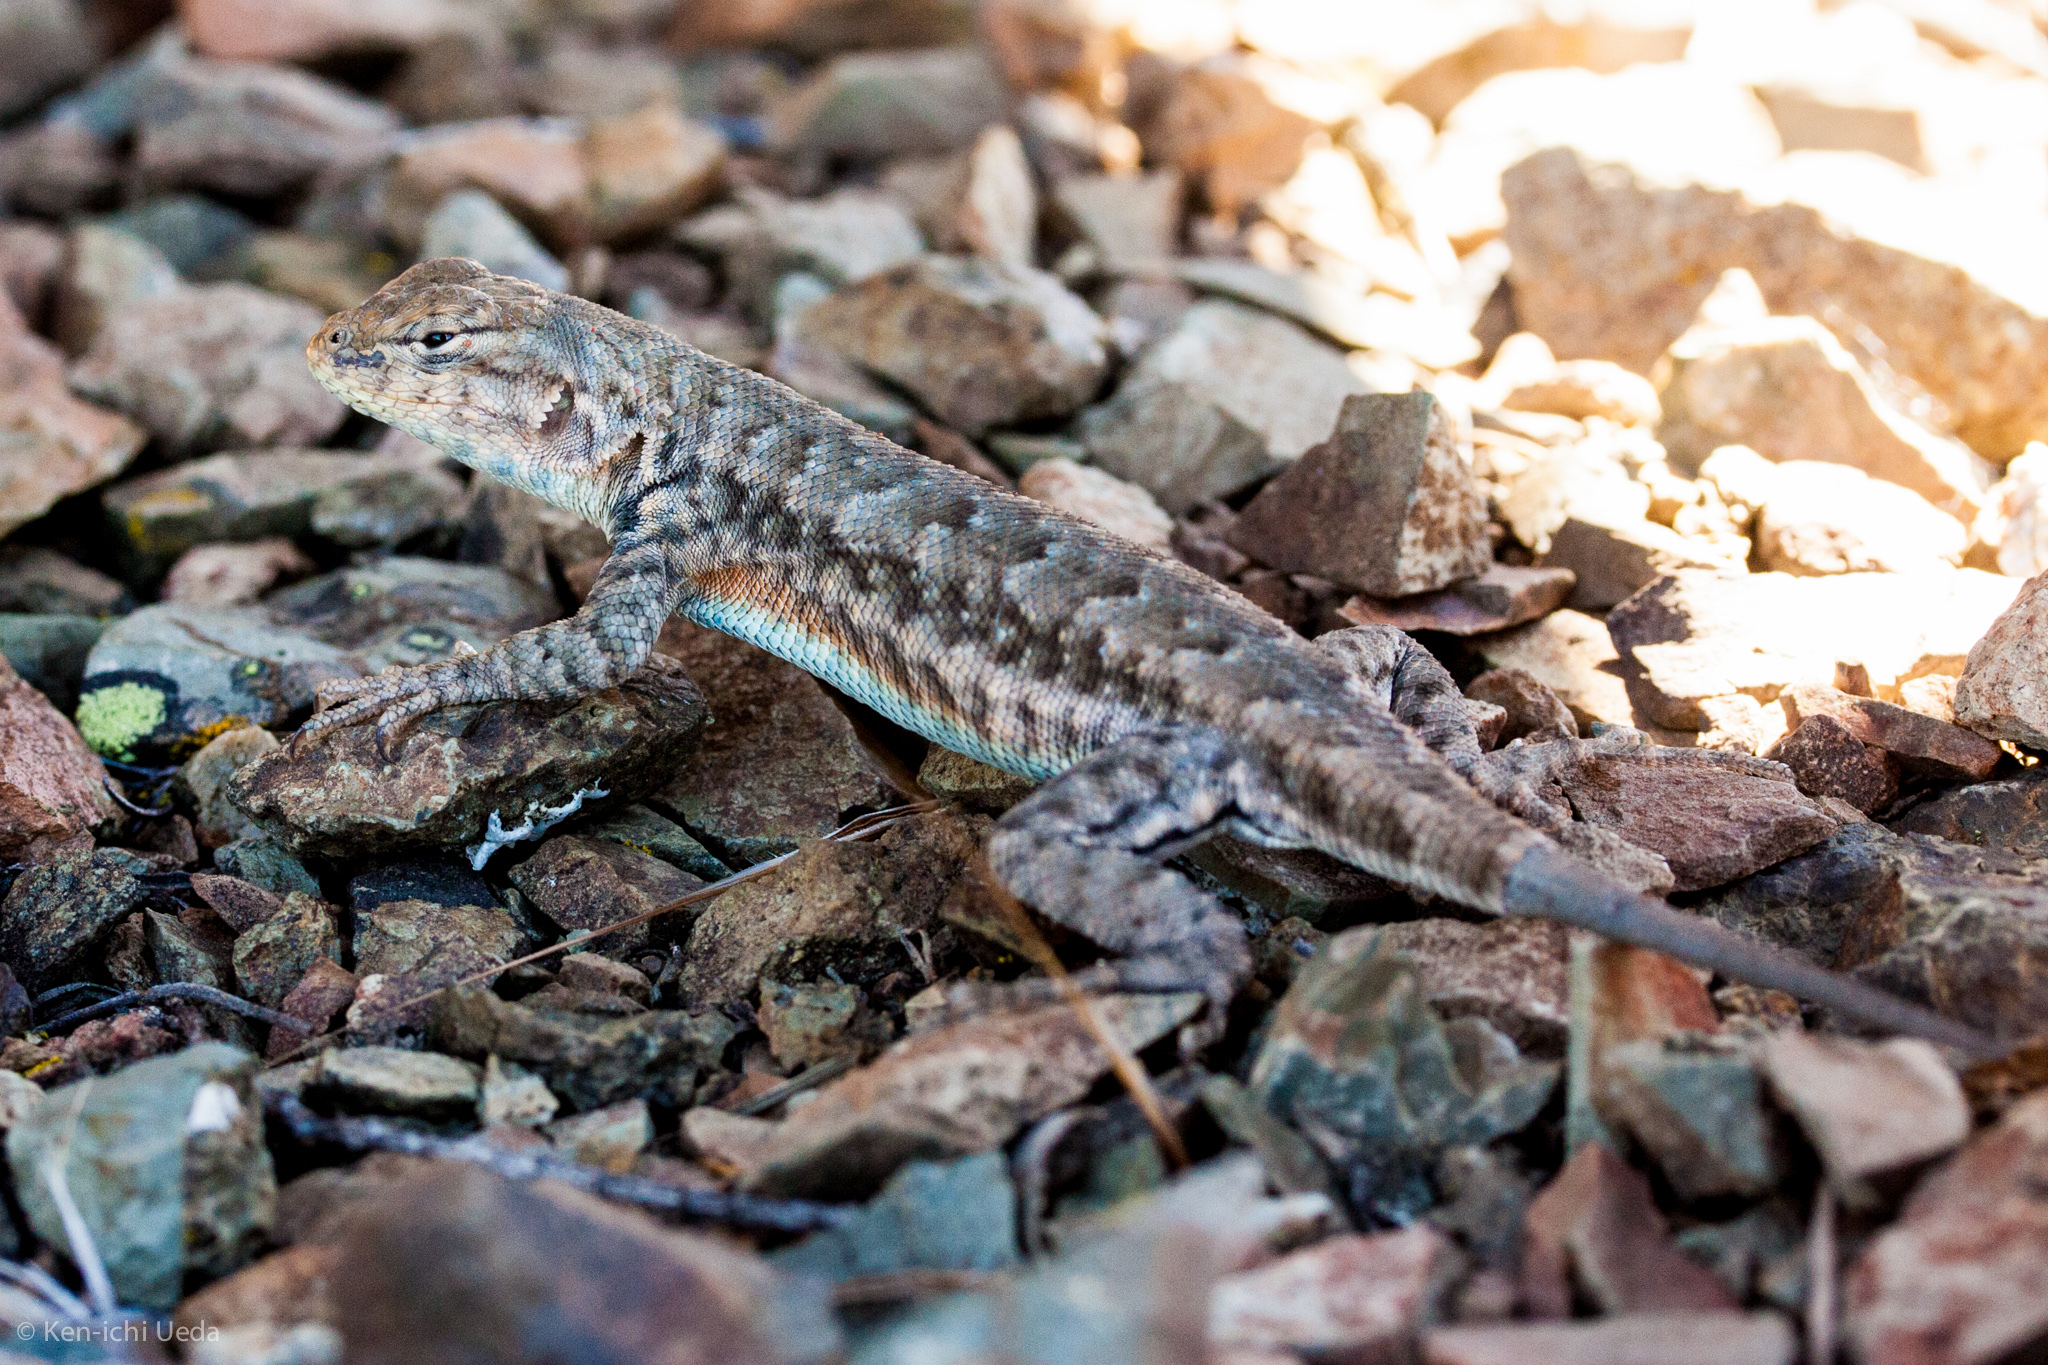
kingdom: Animalia
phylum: Chordata
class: Squamata
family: Phrynosomatidae
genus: Sceloporus
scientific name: Sceloporus graciosus
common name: Sagebrush lizard
